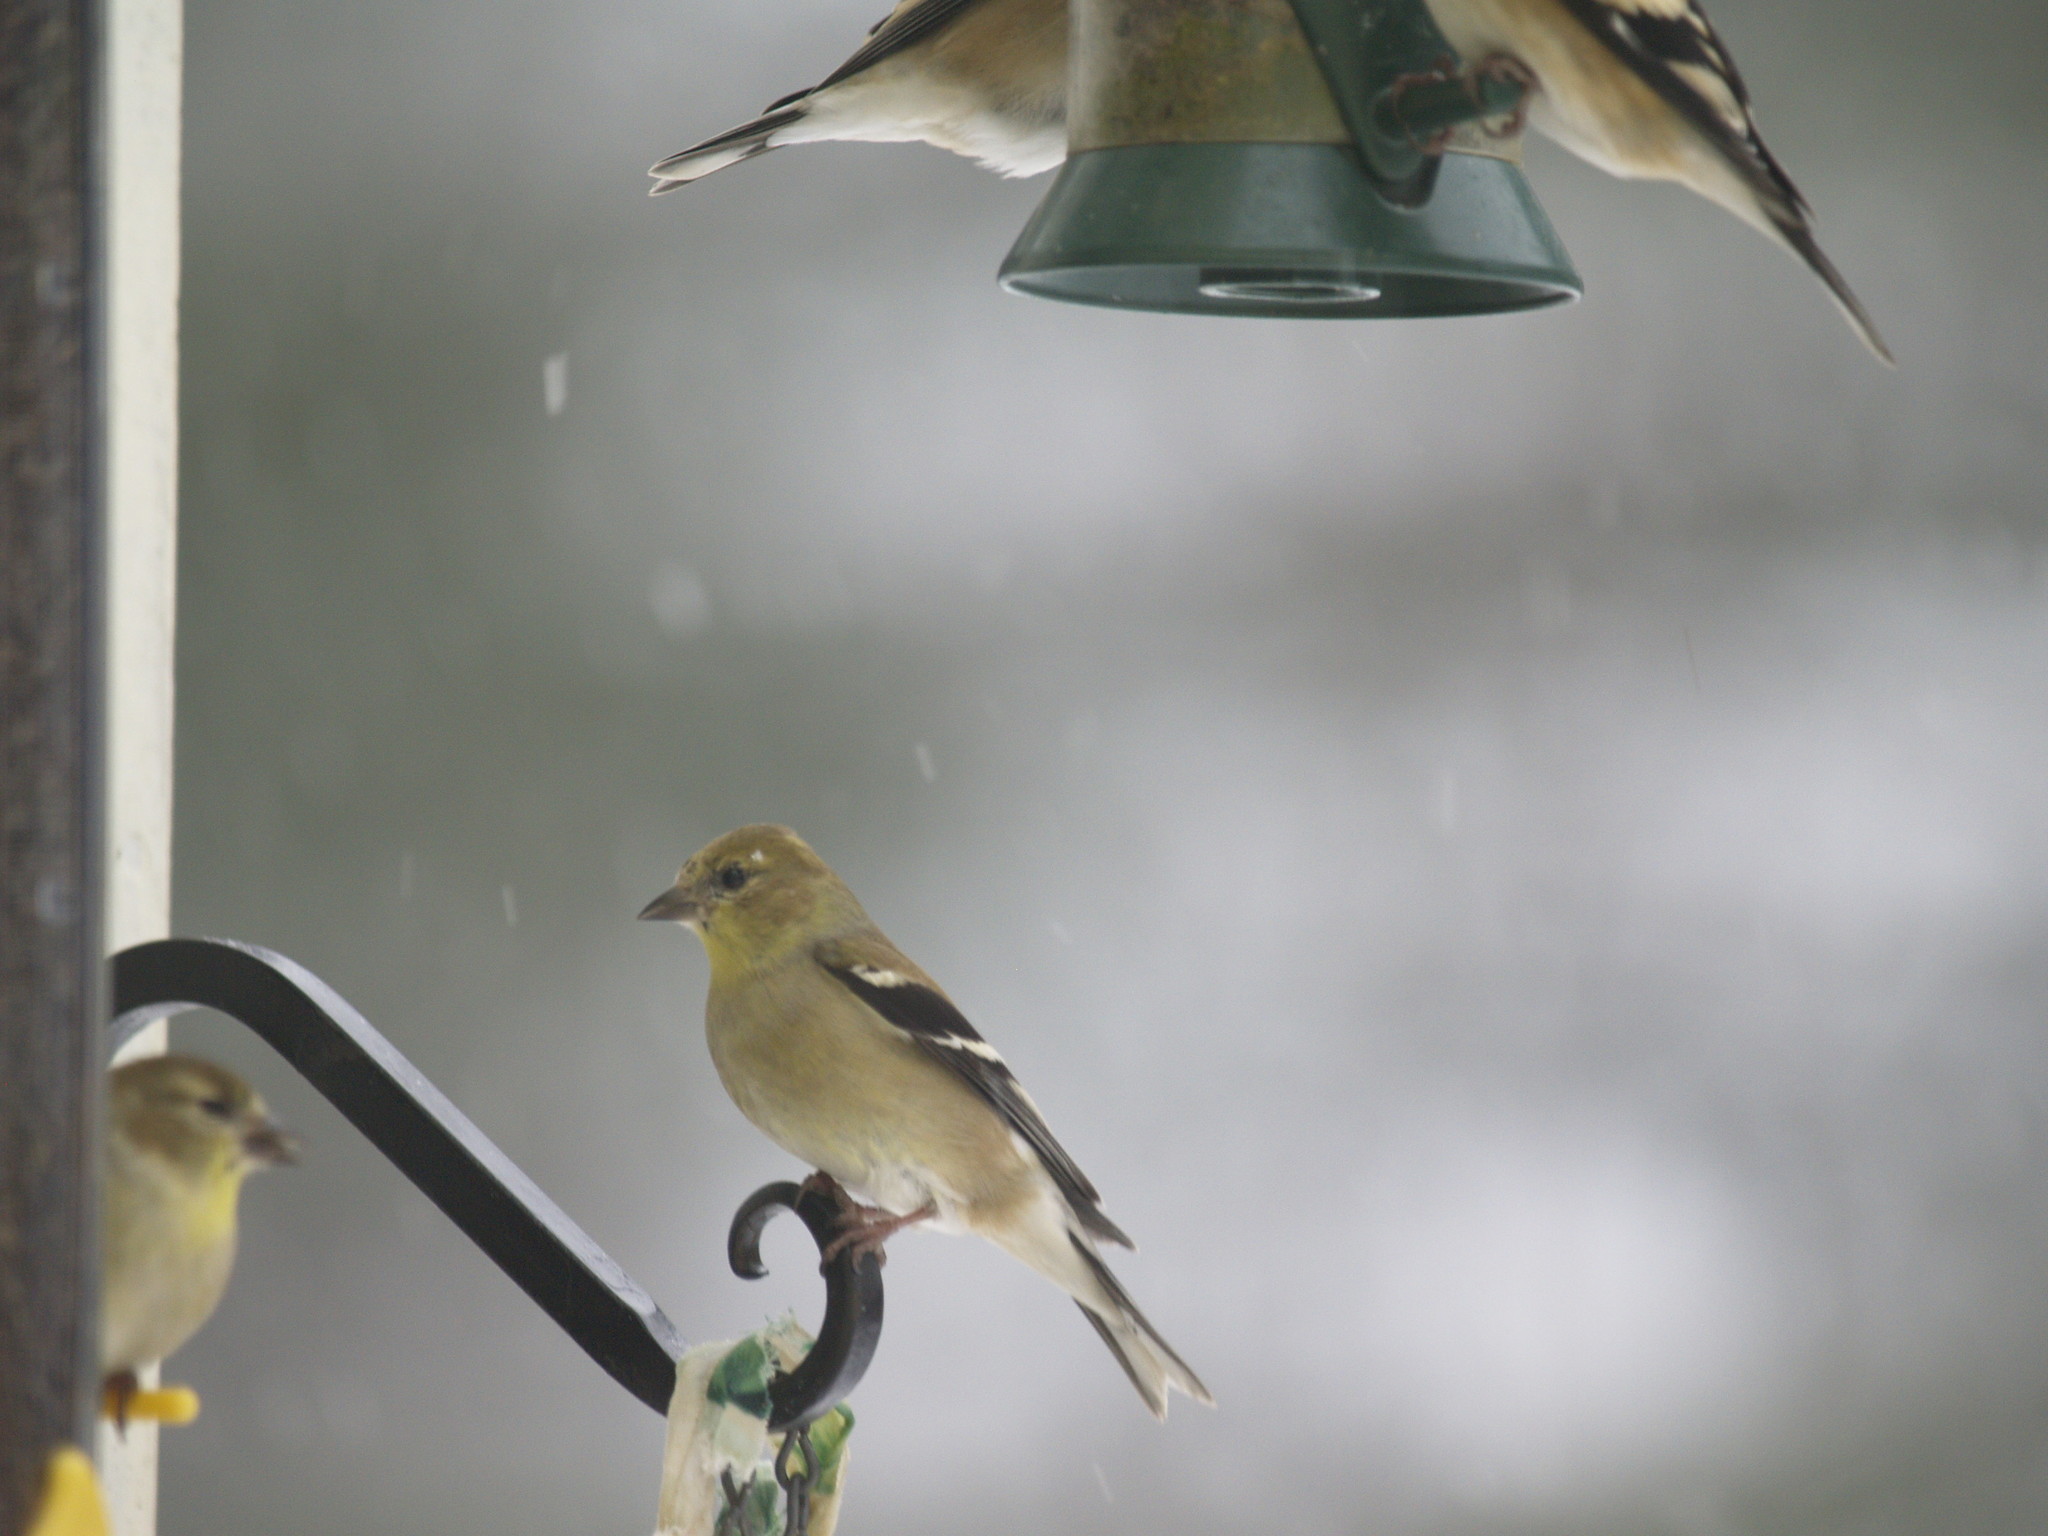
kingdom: Animalia
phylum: Chordata
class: Aves
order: Passeriformes
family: Fringillidae
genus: Spinus
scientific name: Spinus tristis
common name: American goldfinch
